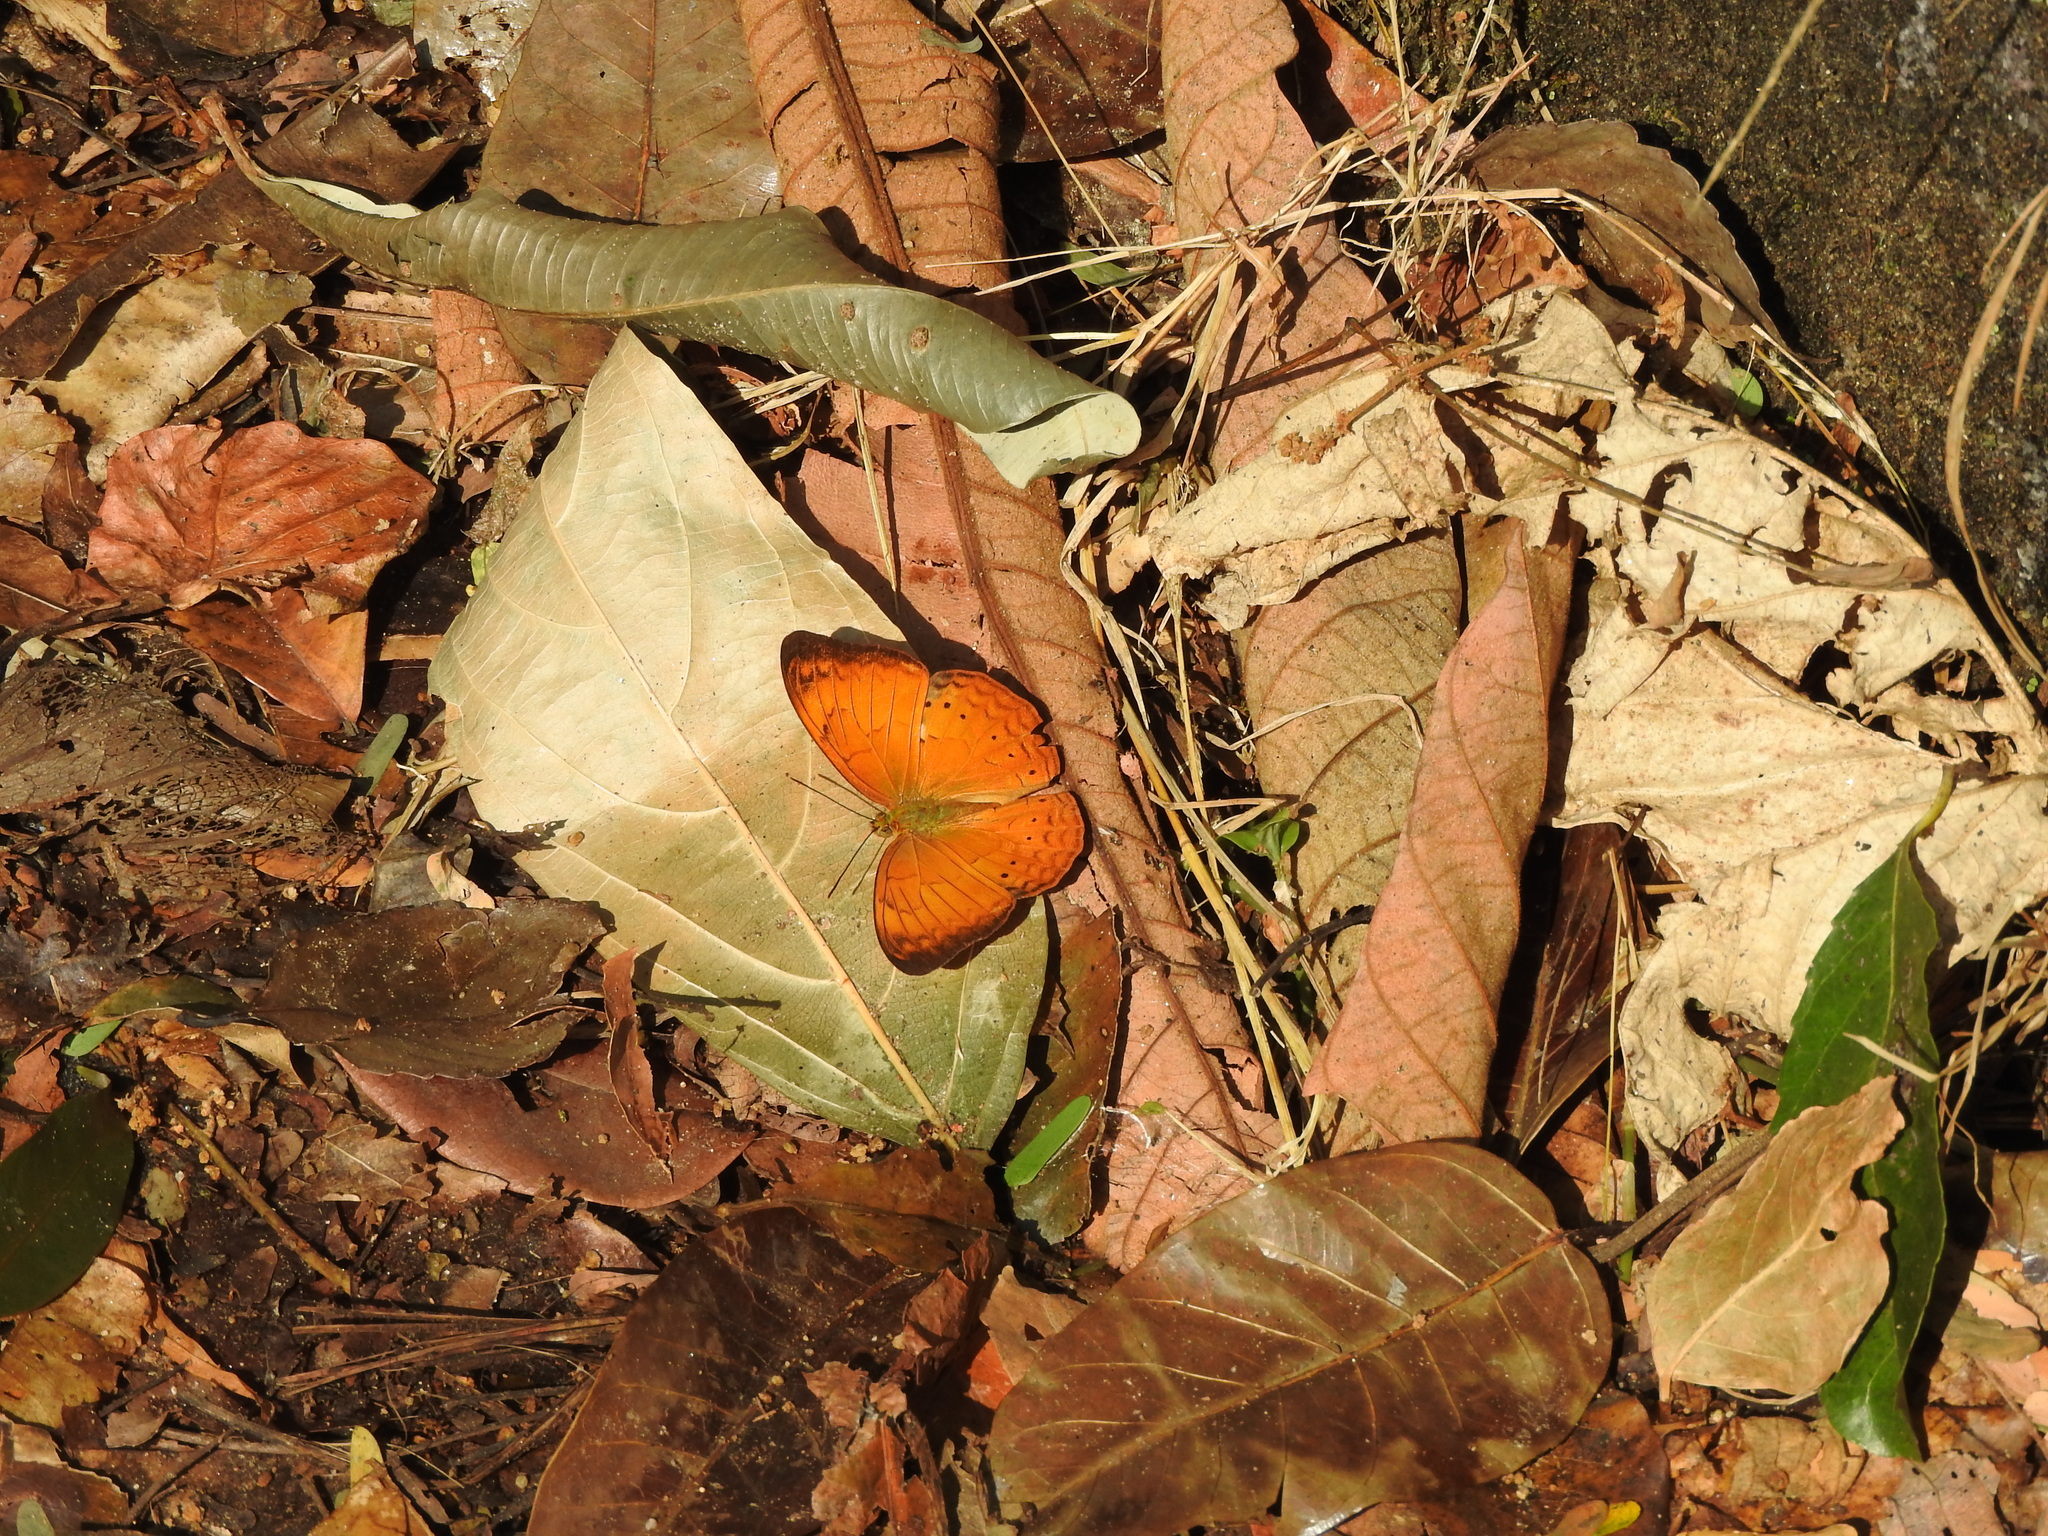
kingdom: Animalia
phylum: Arthropoda
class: Insecta
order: Lepidoptera
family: Nymphalidae
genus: Cirrochroa
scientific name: Cirrochroa thais
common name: Tamil yeoman
